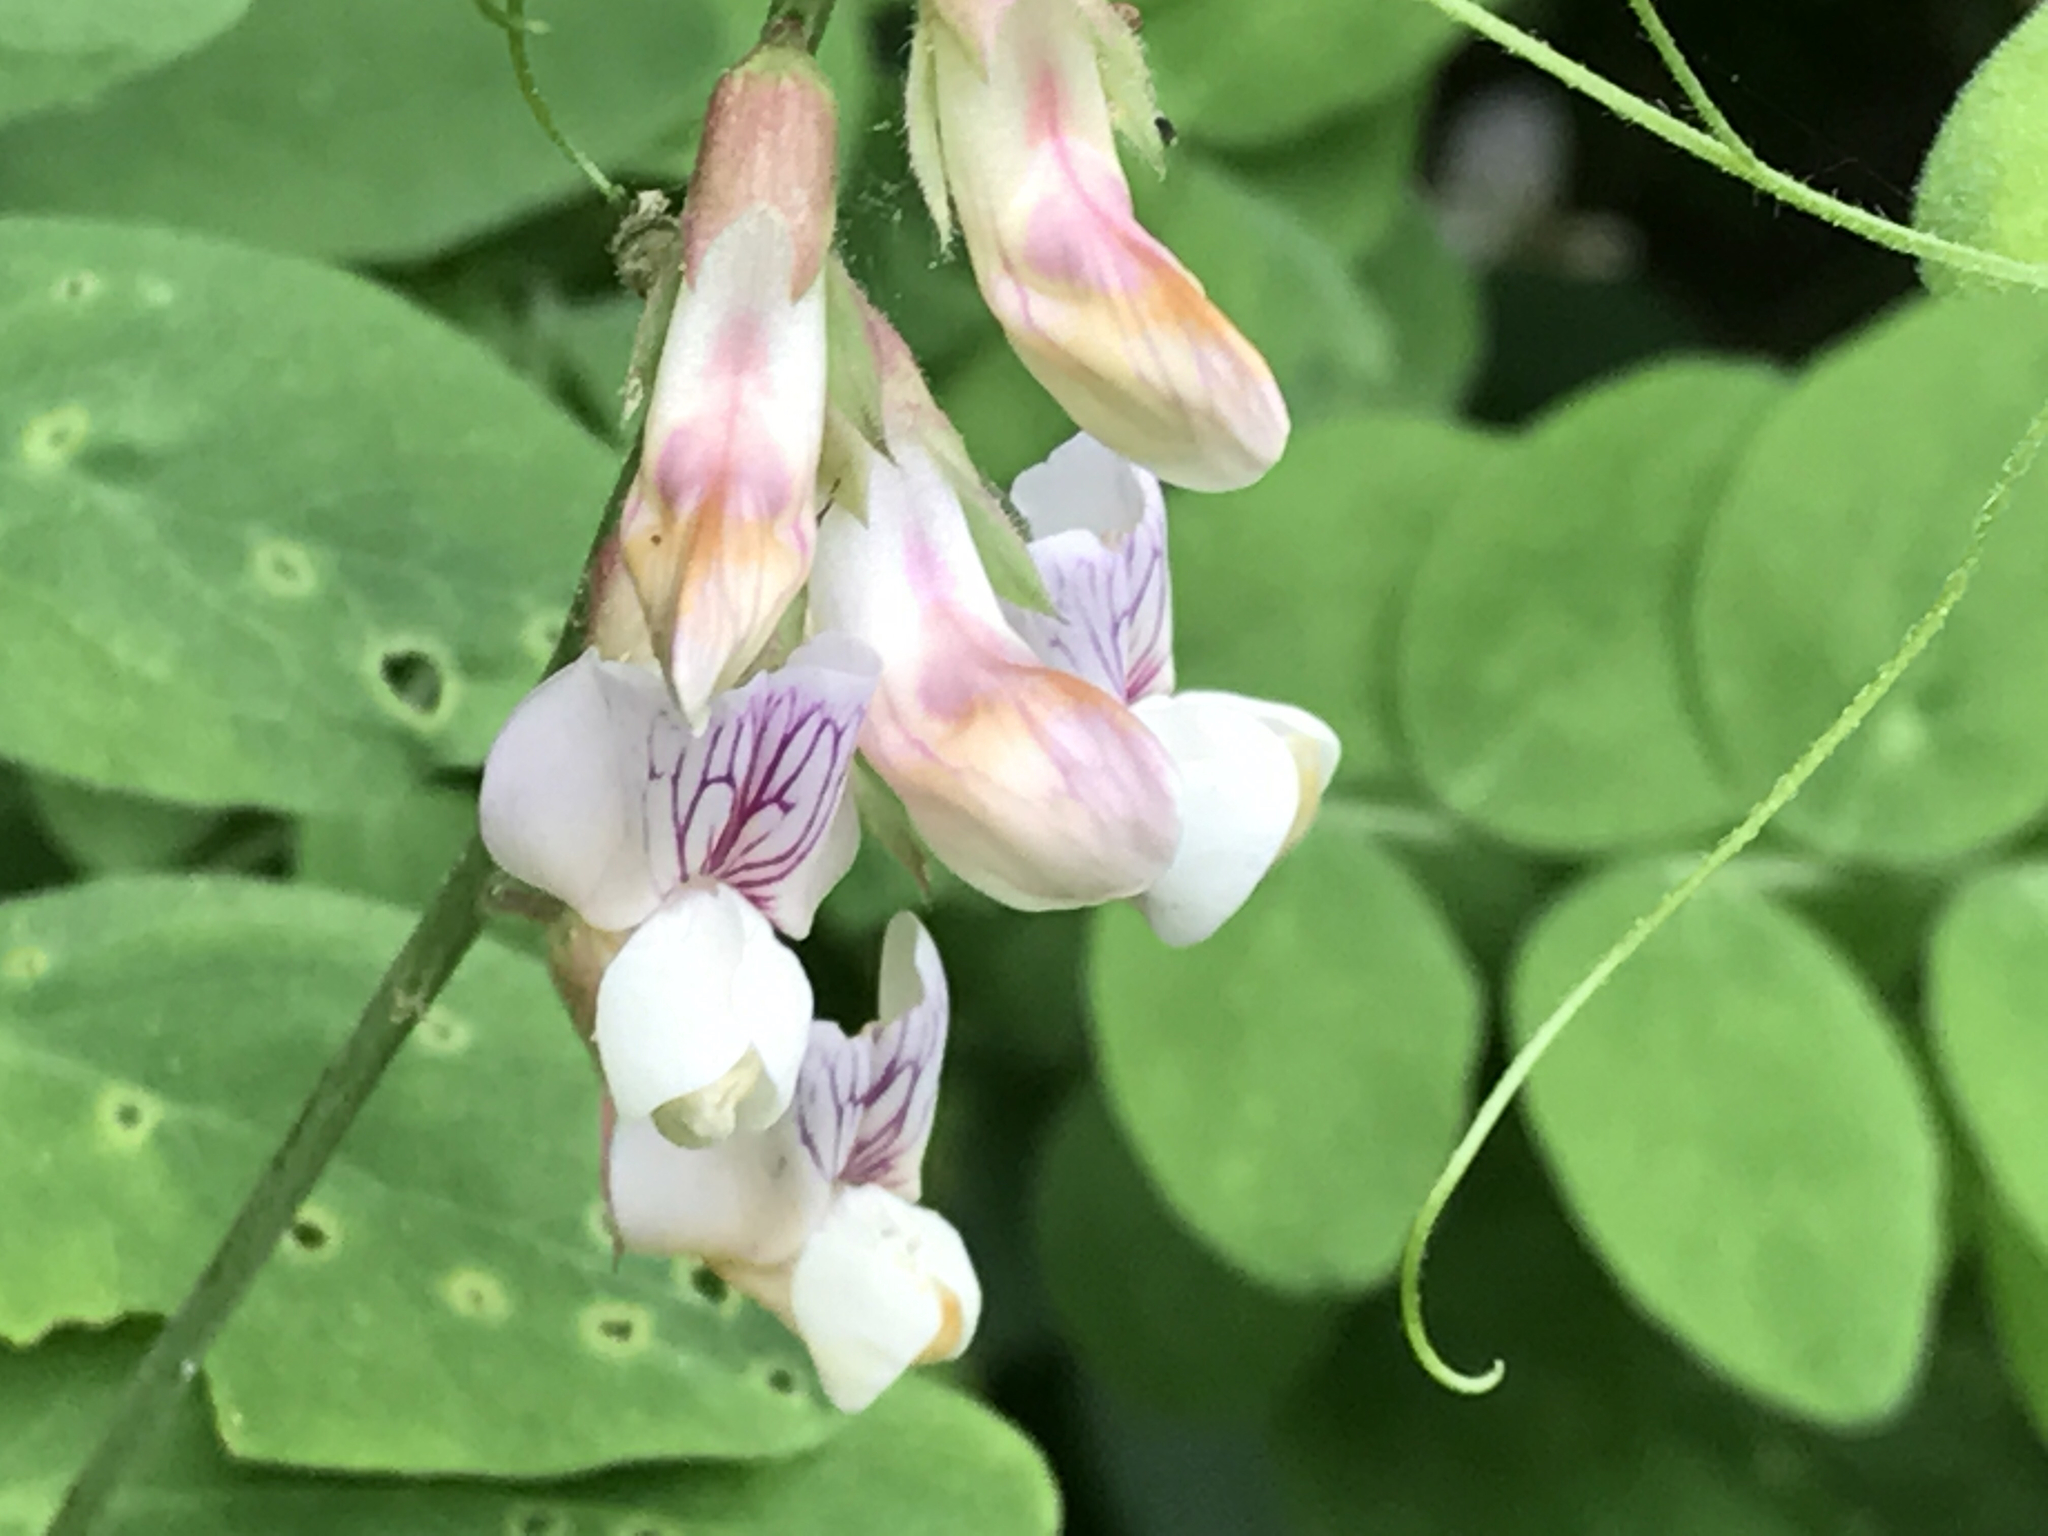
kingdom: Plantae
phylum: Tracheophyta
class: Magnoliopsida
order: Fabales
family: Fabaceae
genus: Lathyrus
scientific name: Lathyrus vestitus
